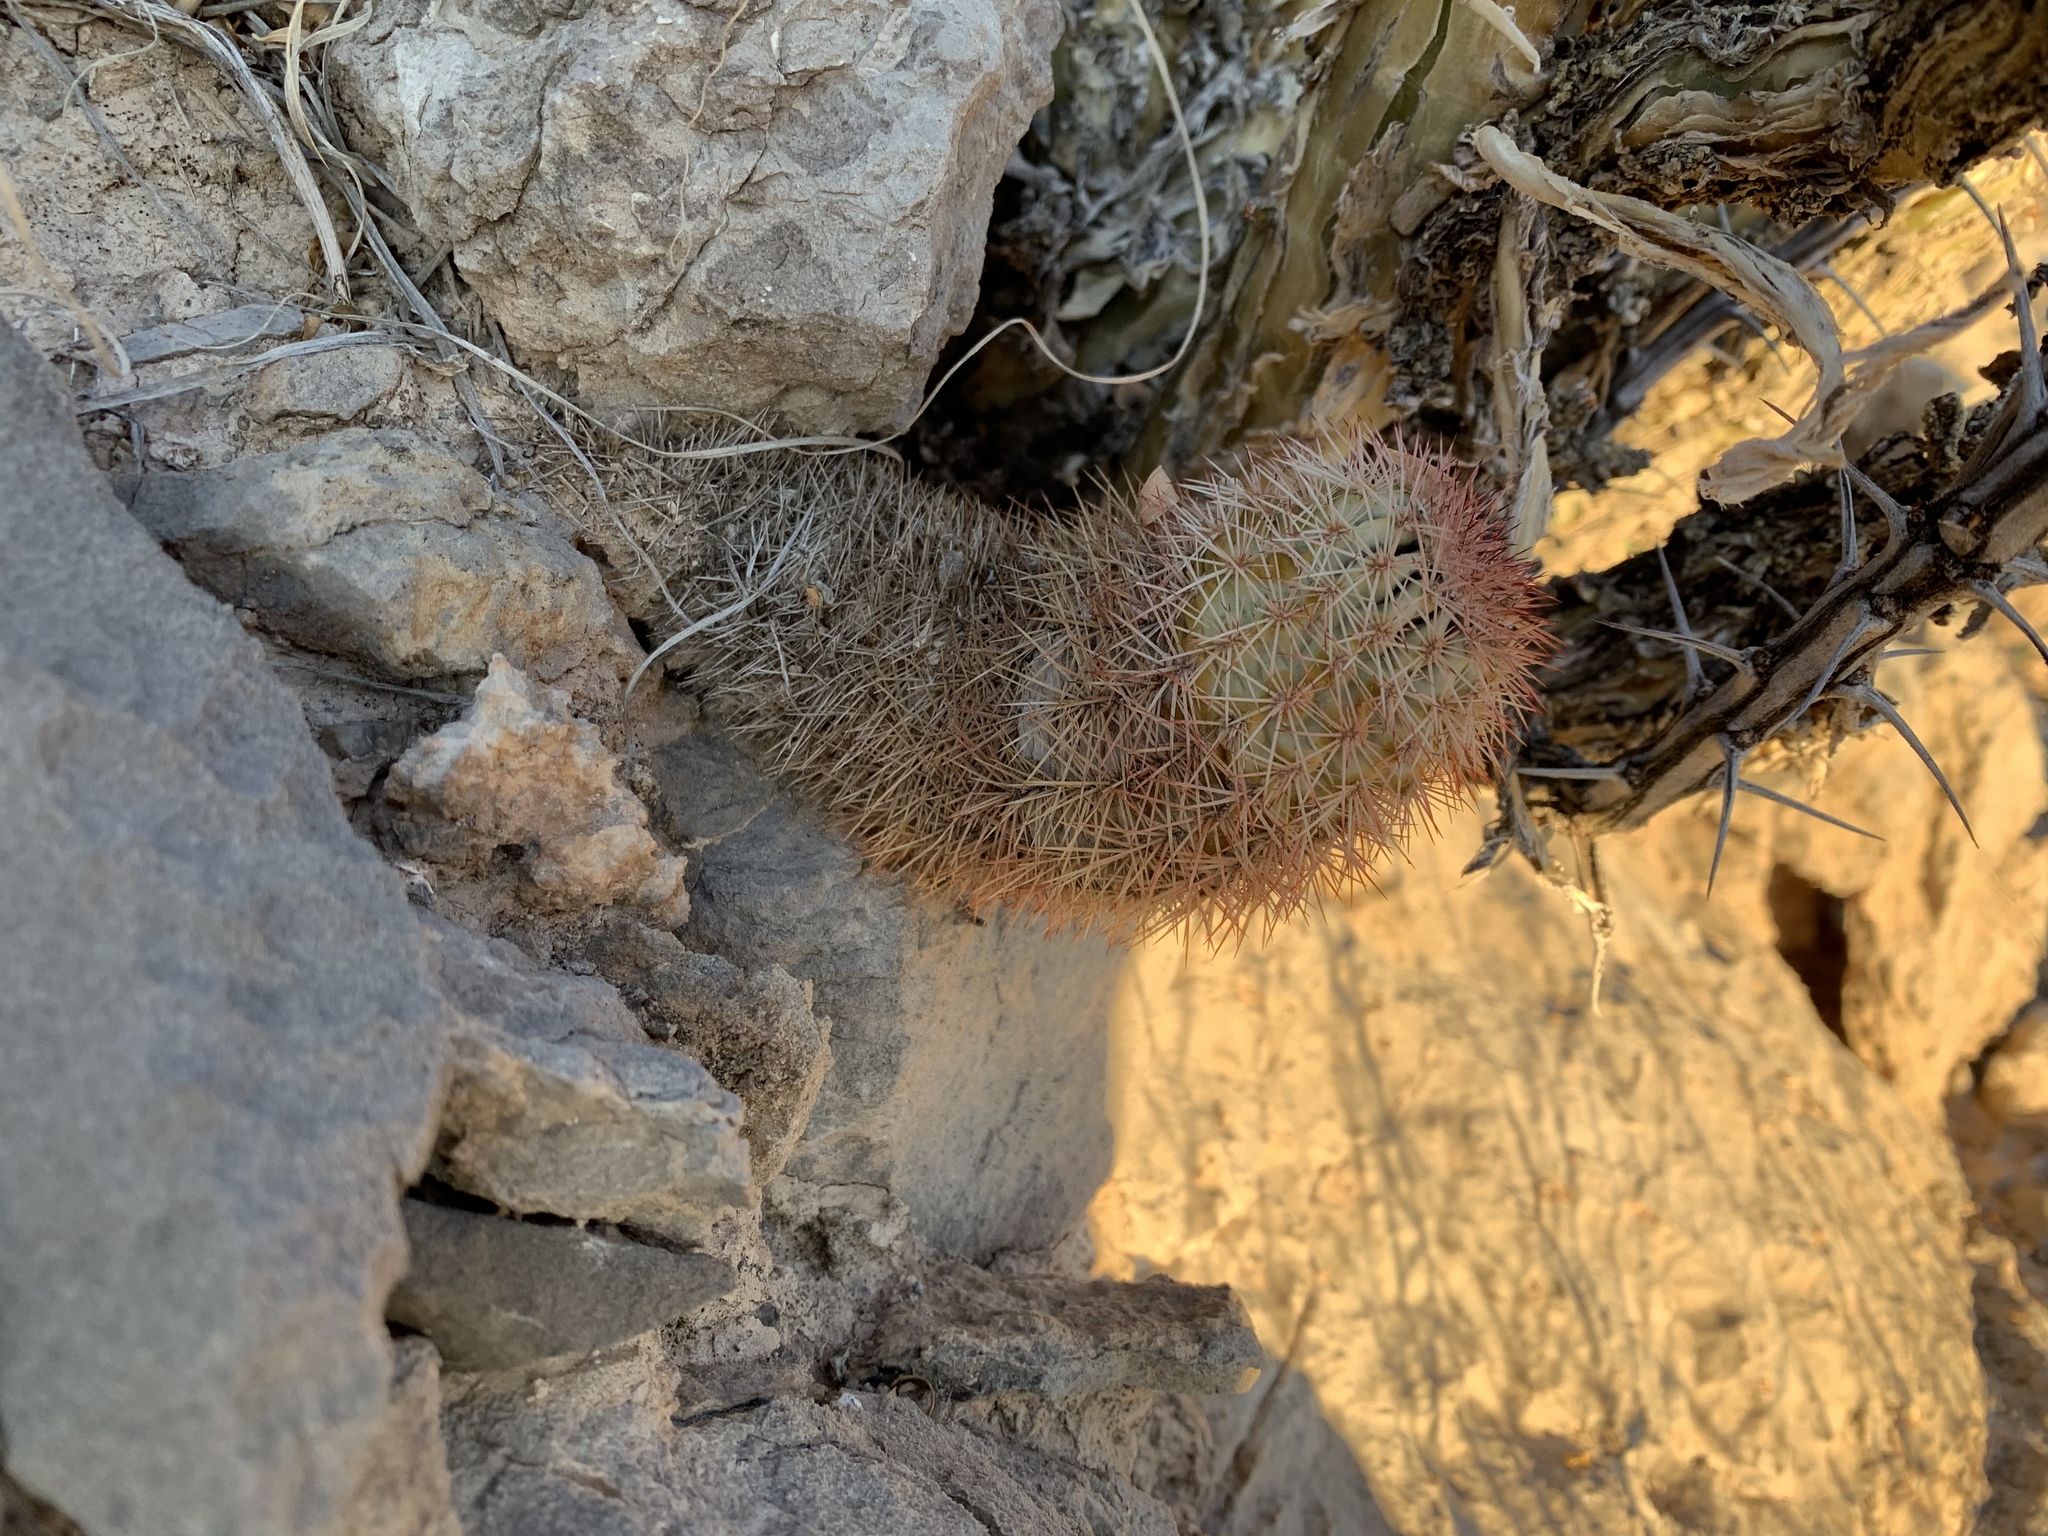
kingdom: Plantae
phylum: Tracheophyta
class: Magnoliopsida
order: Caryophyllales
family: Cactaceae
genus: Echinocereus
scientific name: Echinocereus dasyacanthus
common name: Spiny hedgehog cactus
